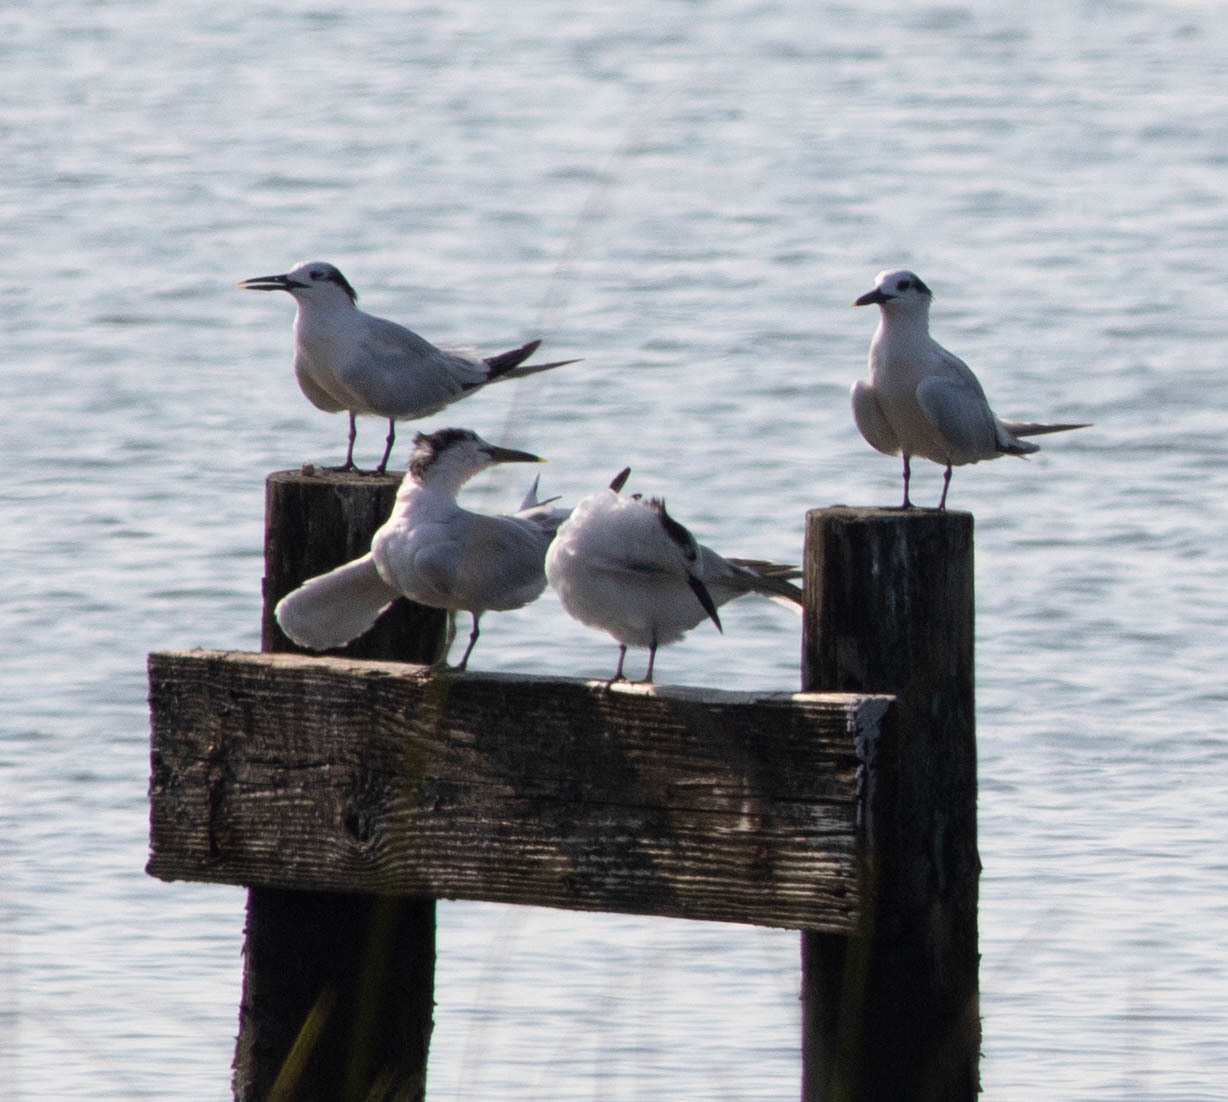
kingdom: Animalia
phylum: Chordata
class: Aves
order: Charadriiformes
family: Laridae
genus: Thalasseus
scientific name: Thalasseus sandvicensis
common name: Sandwich tern
